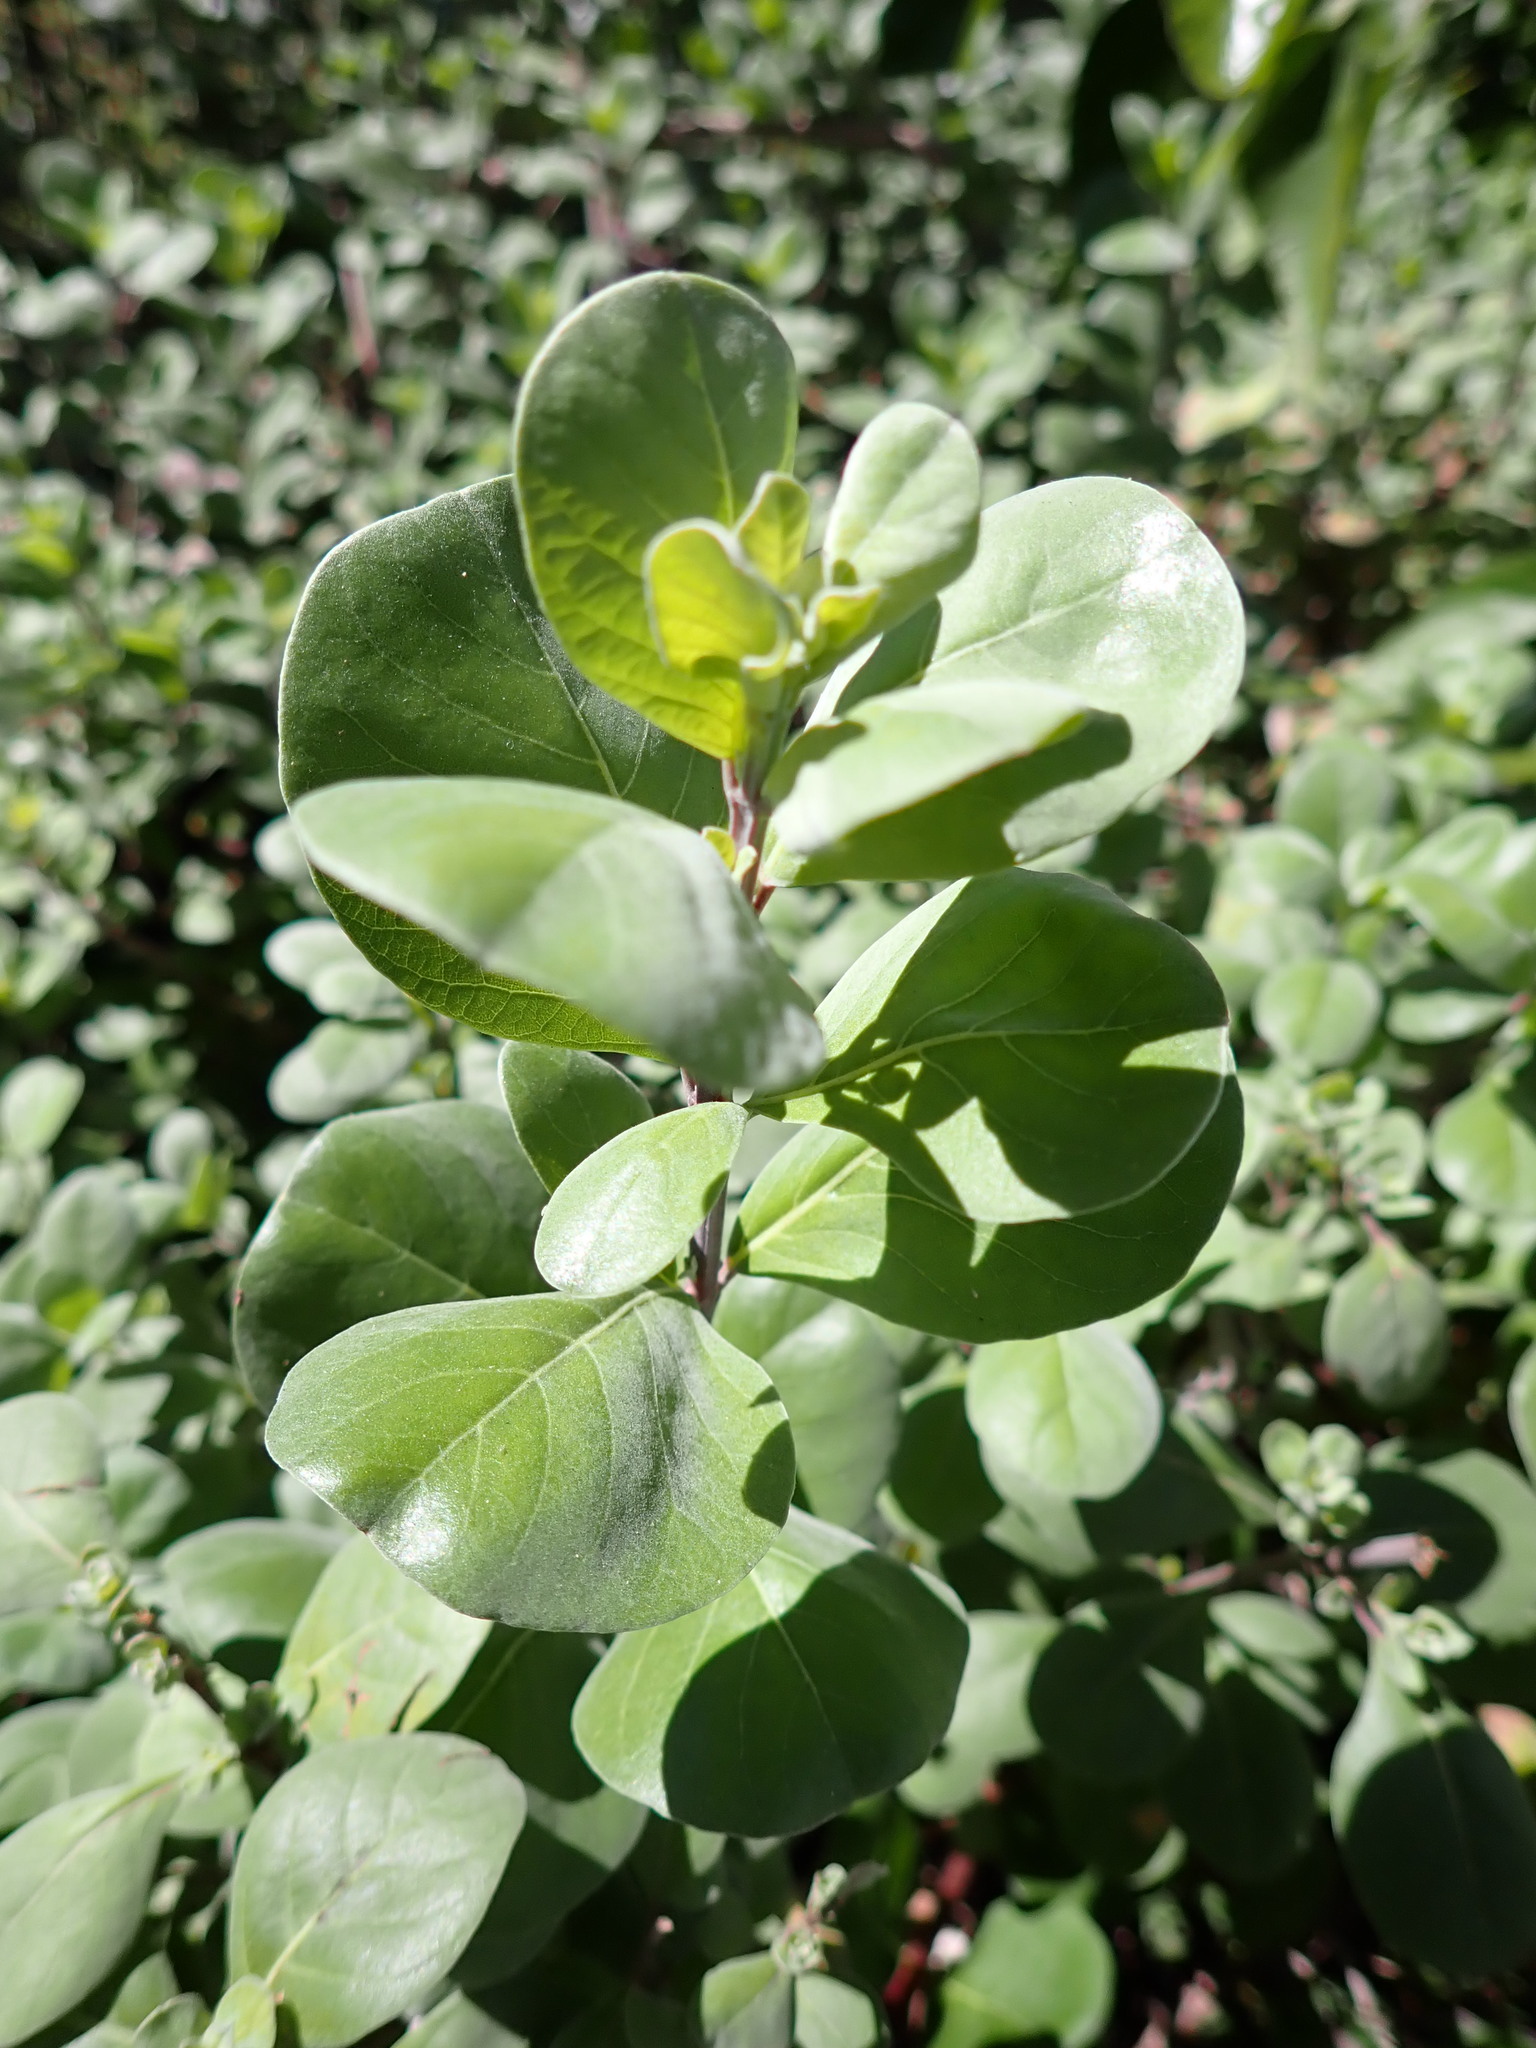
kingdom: Plantae
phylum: Tracheophyta
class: Magnoliopsida
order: Lamiales
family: Lamiaceae
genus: Vitex
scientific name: Vitex rotundifolia
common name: Beach vitex
